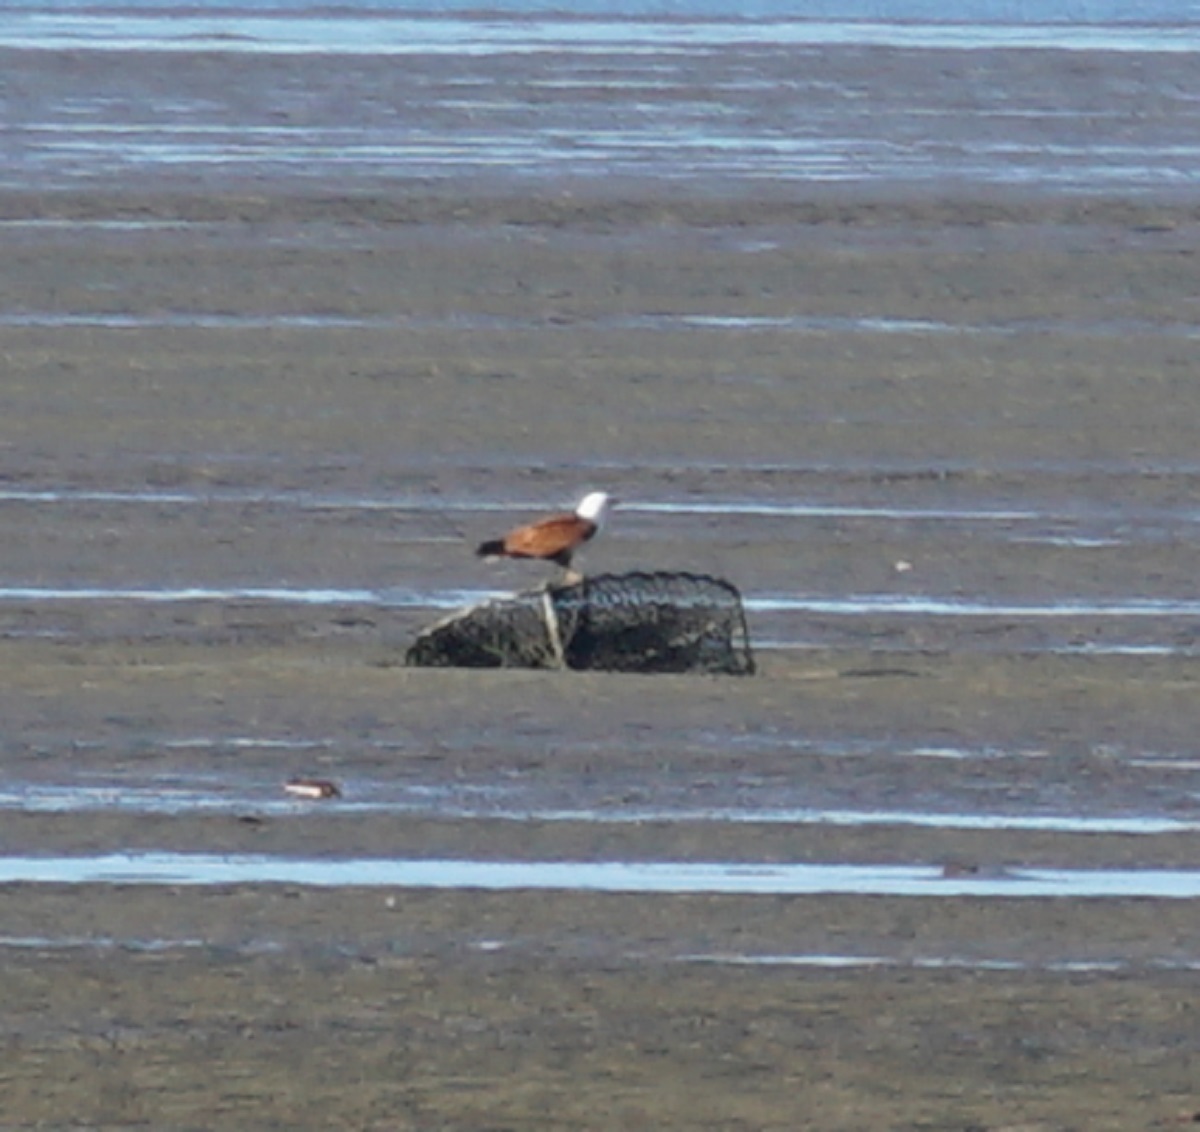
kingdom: Animalia
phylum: Chordata
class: Aves
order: Accipitriformes
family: Accipitridae
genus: Haliastur
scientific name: Haliastur indus
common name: Brahminy kite
